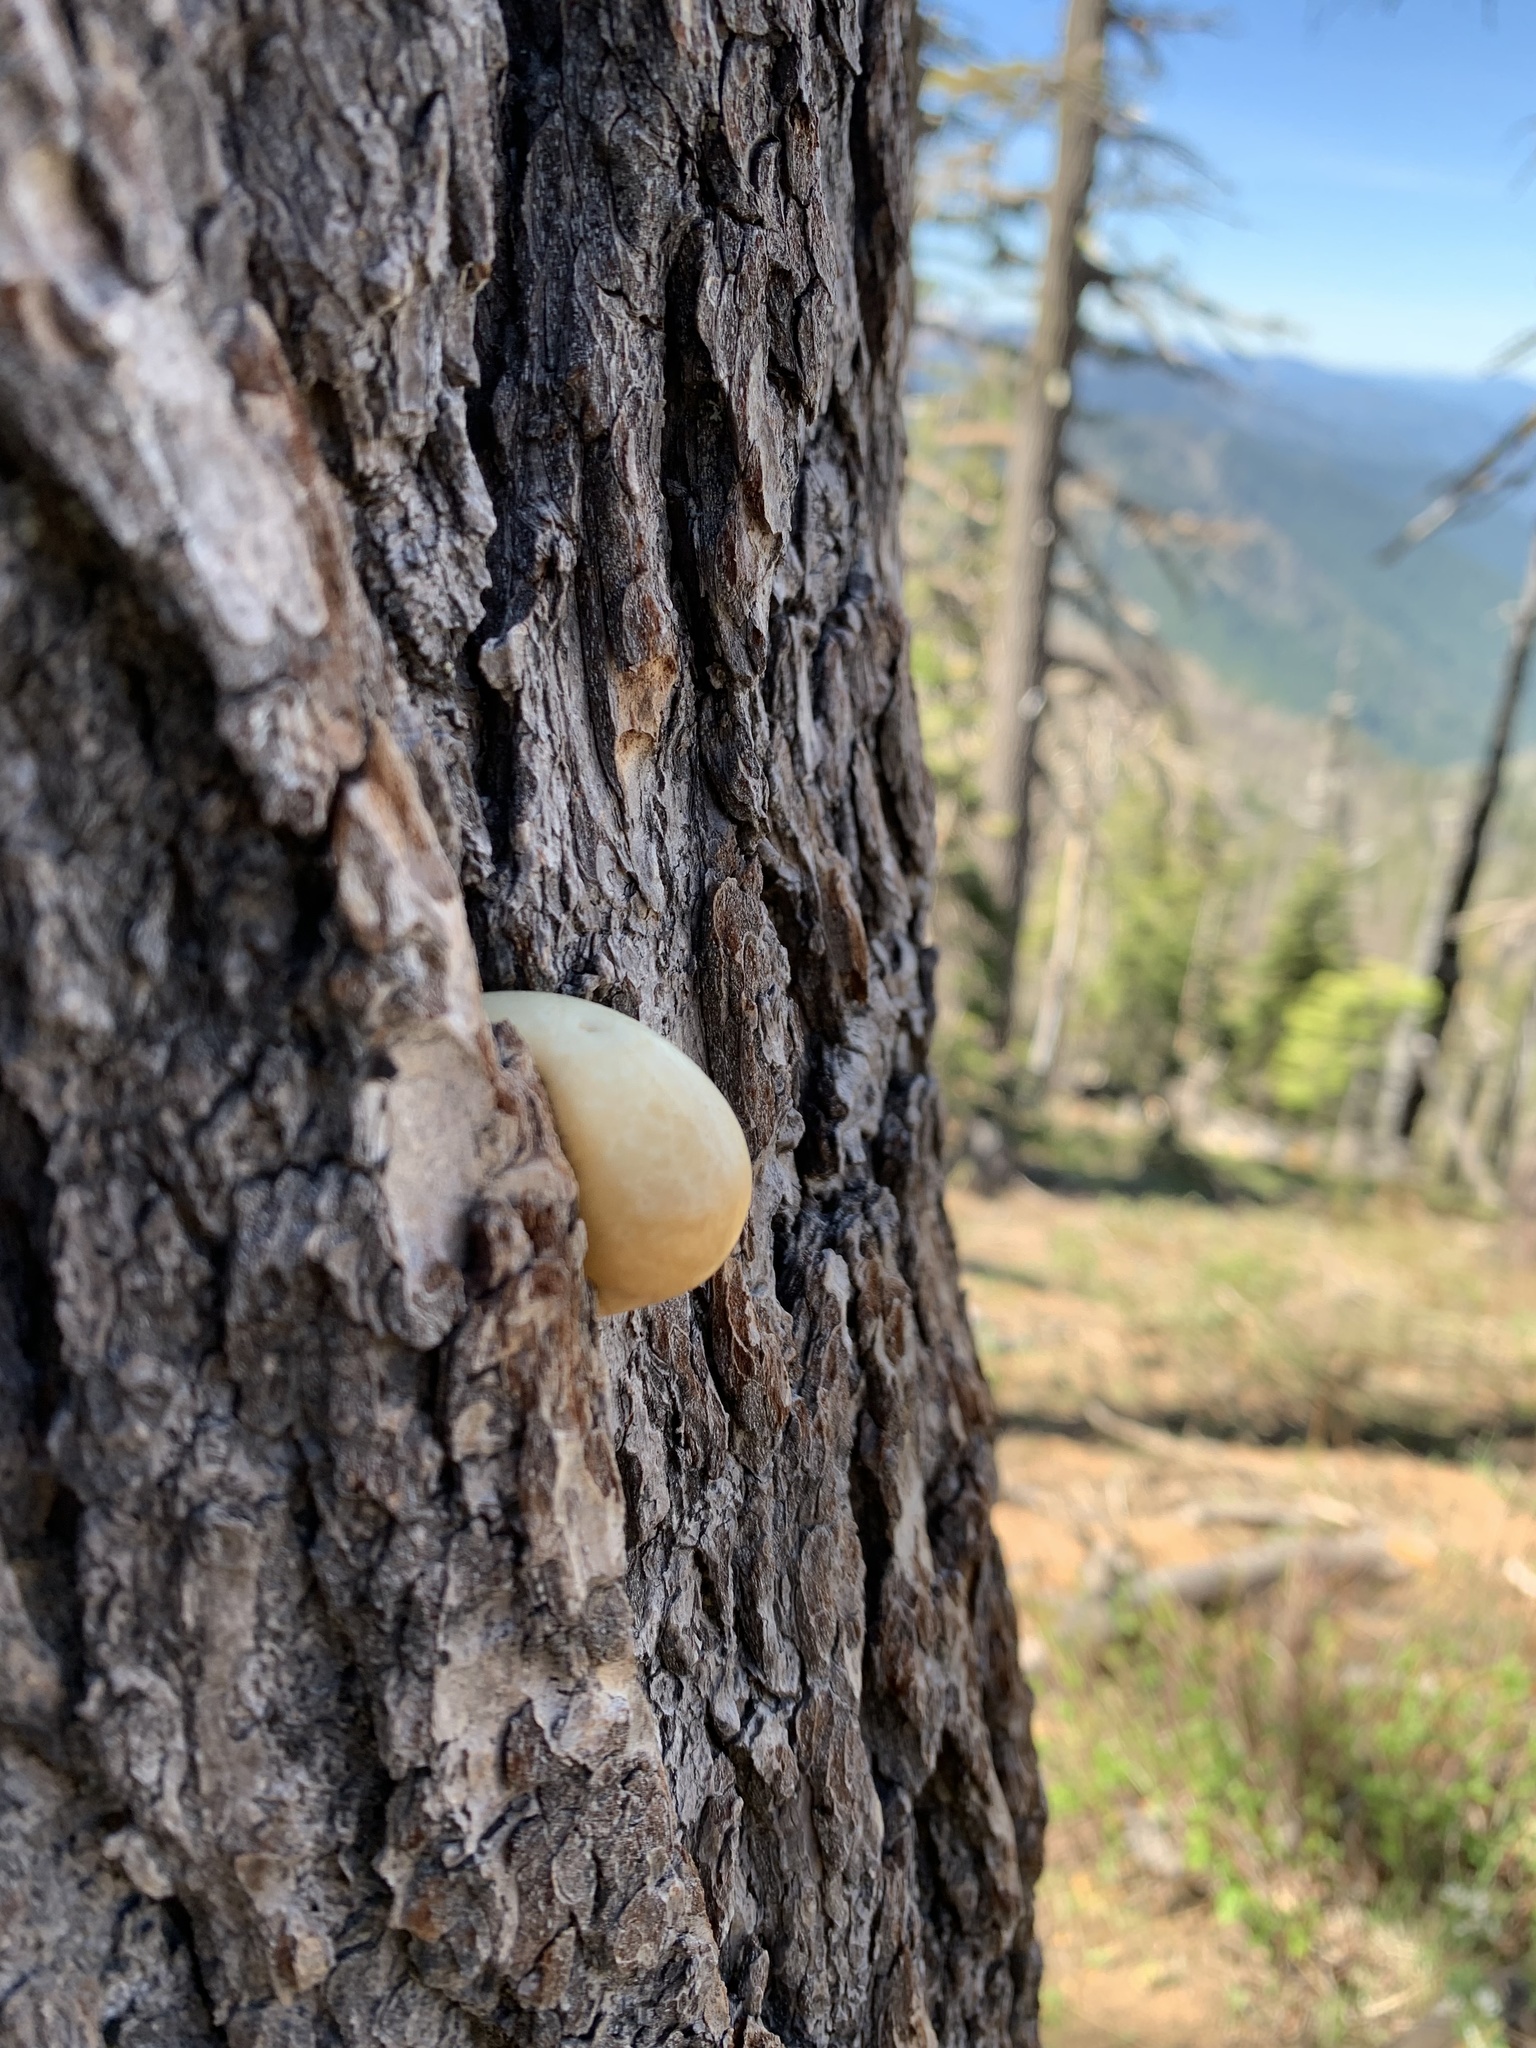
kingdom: Fungi
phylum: Basidiomycota
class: Agaricomycetes
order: Polyporales
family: Polyporaceae
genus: Cryptoporus
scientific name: Cryptoporus volvatus
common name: Veiled polypore
